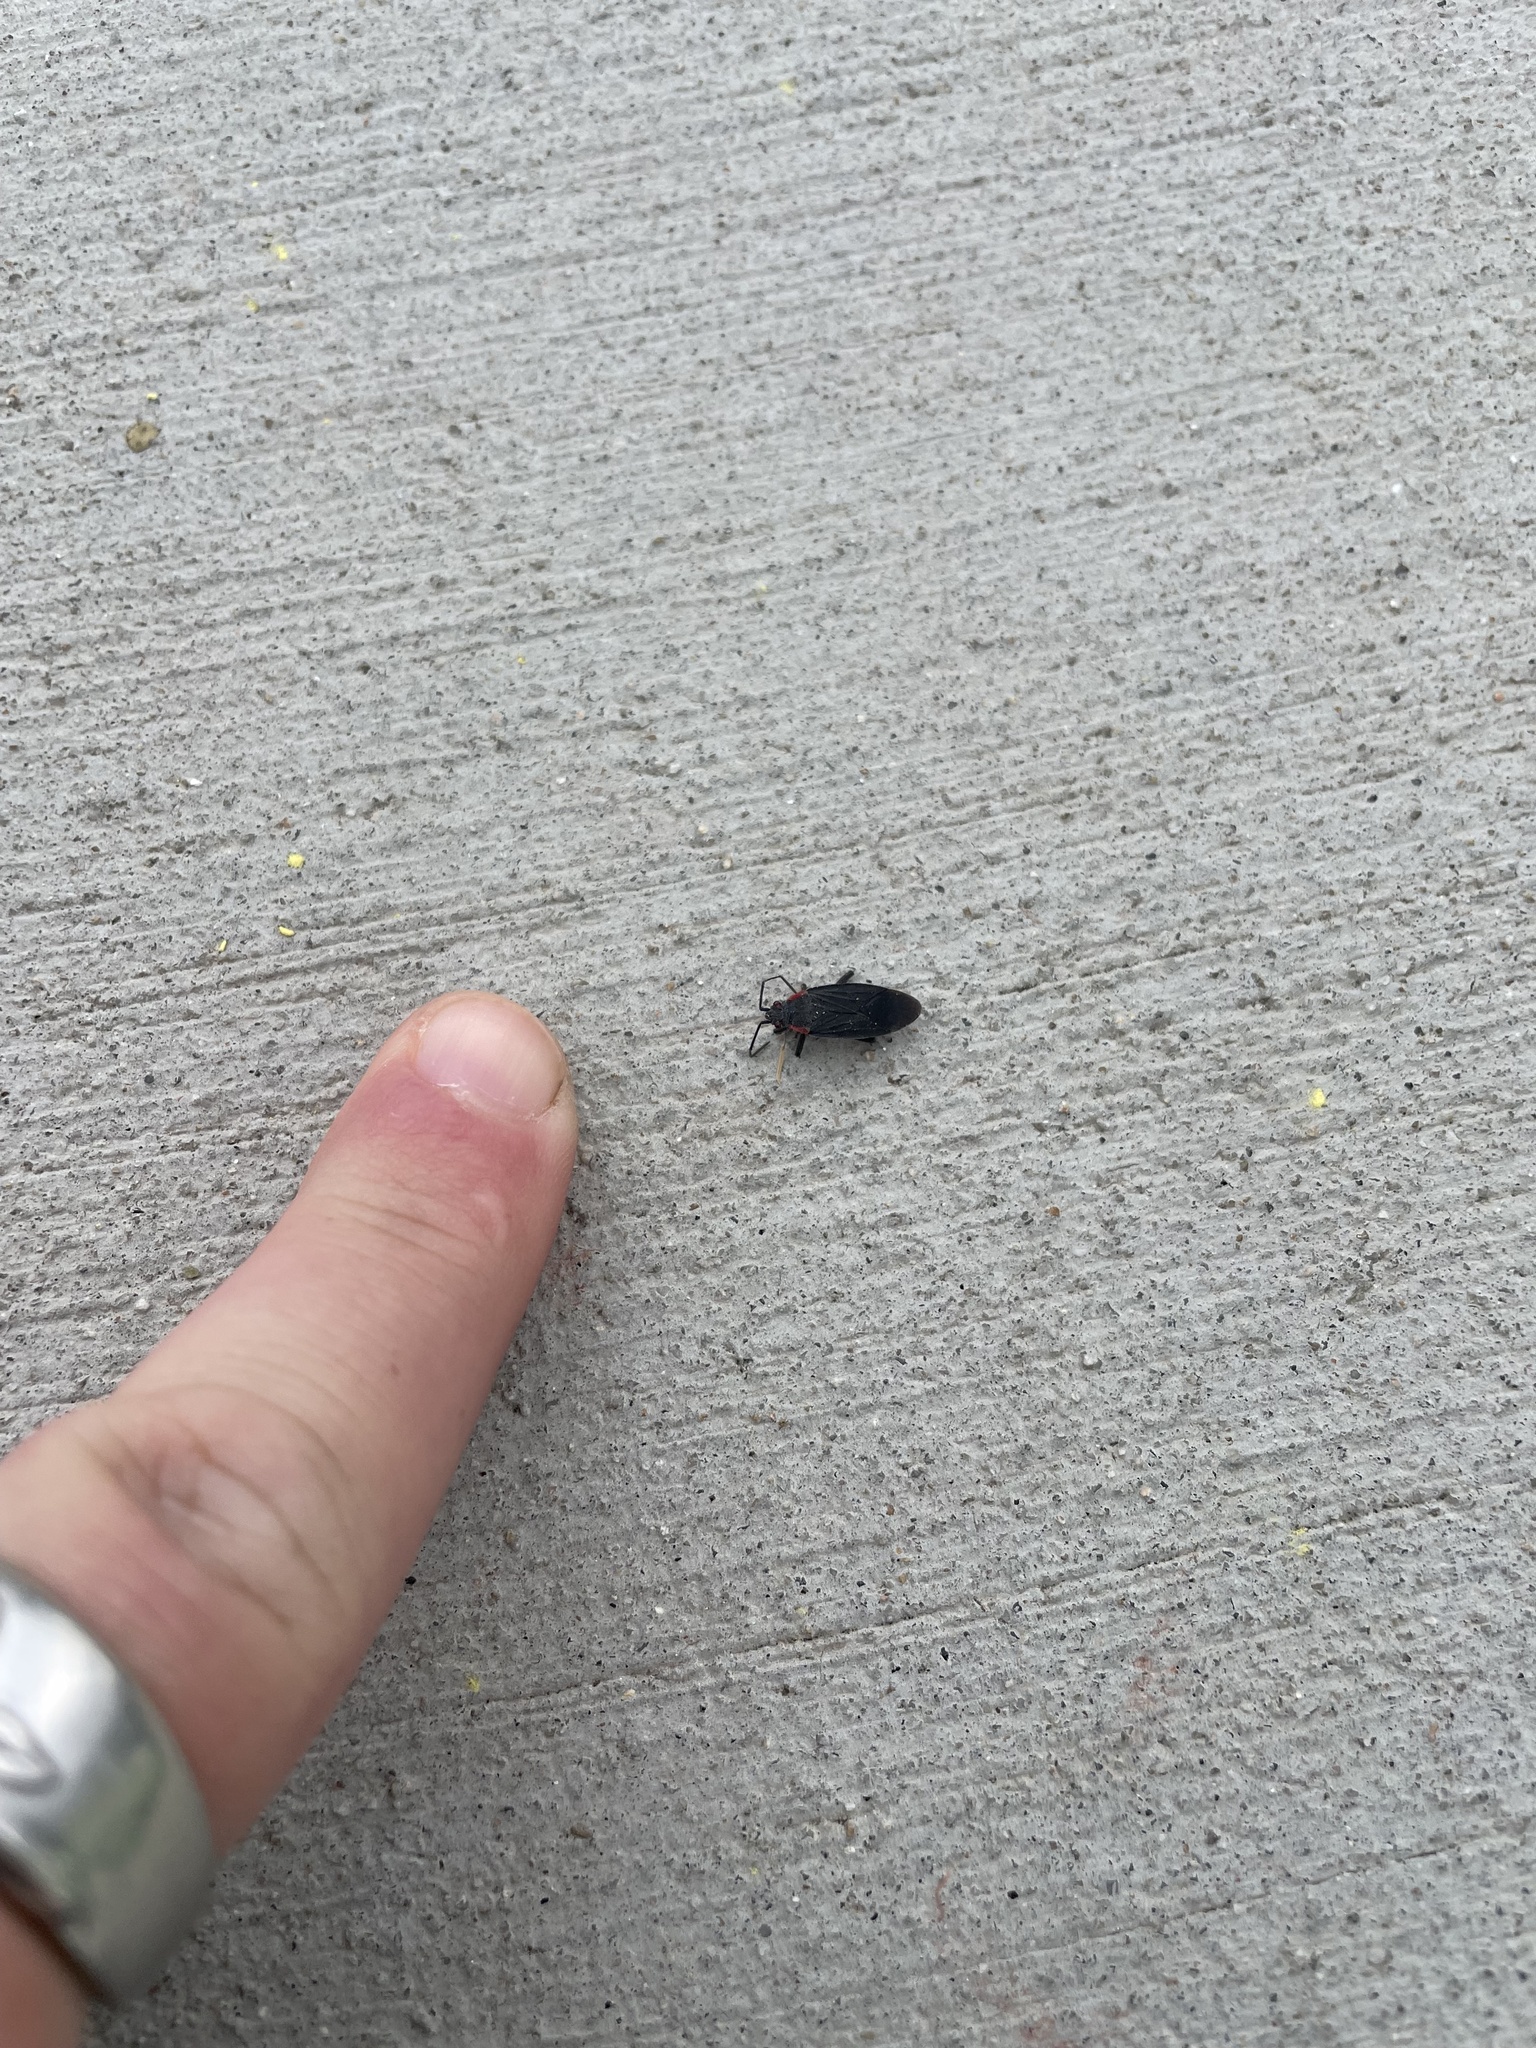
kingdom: Animalia
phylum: Arthropoda
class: Insecta
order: Hemiptera
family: Rhopalidae
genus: Jadera
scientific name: Jadera haematoloma
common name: Red-shouldered bug
